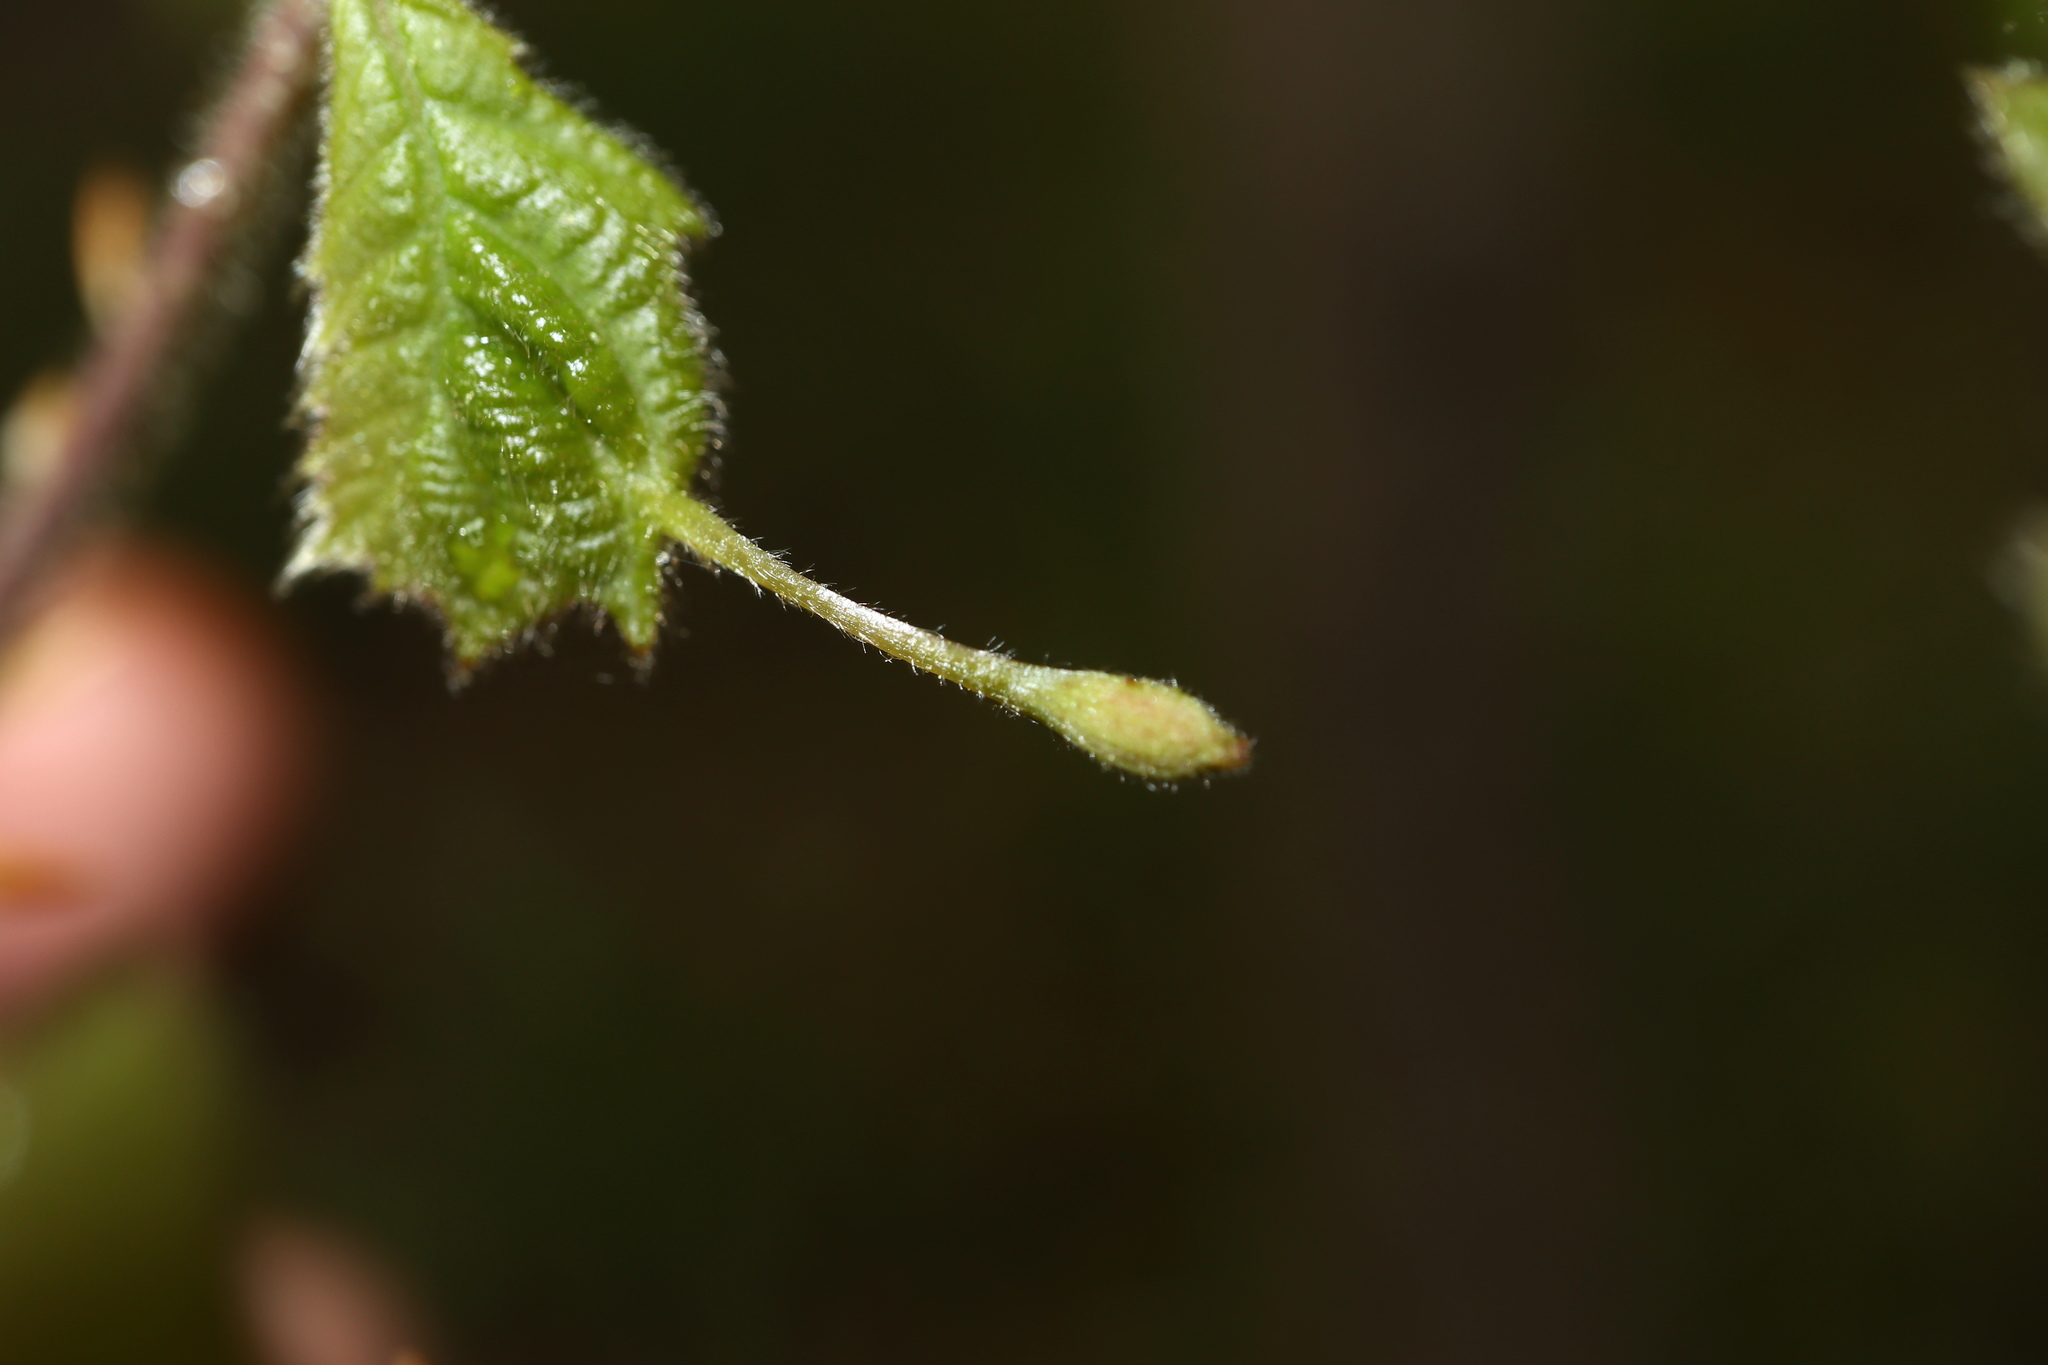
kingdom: Animalia
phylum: Arthropoda
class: Insecta
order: Hymenoptera
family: Cynipidae
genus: Andricus
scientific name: Andricus
